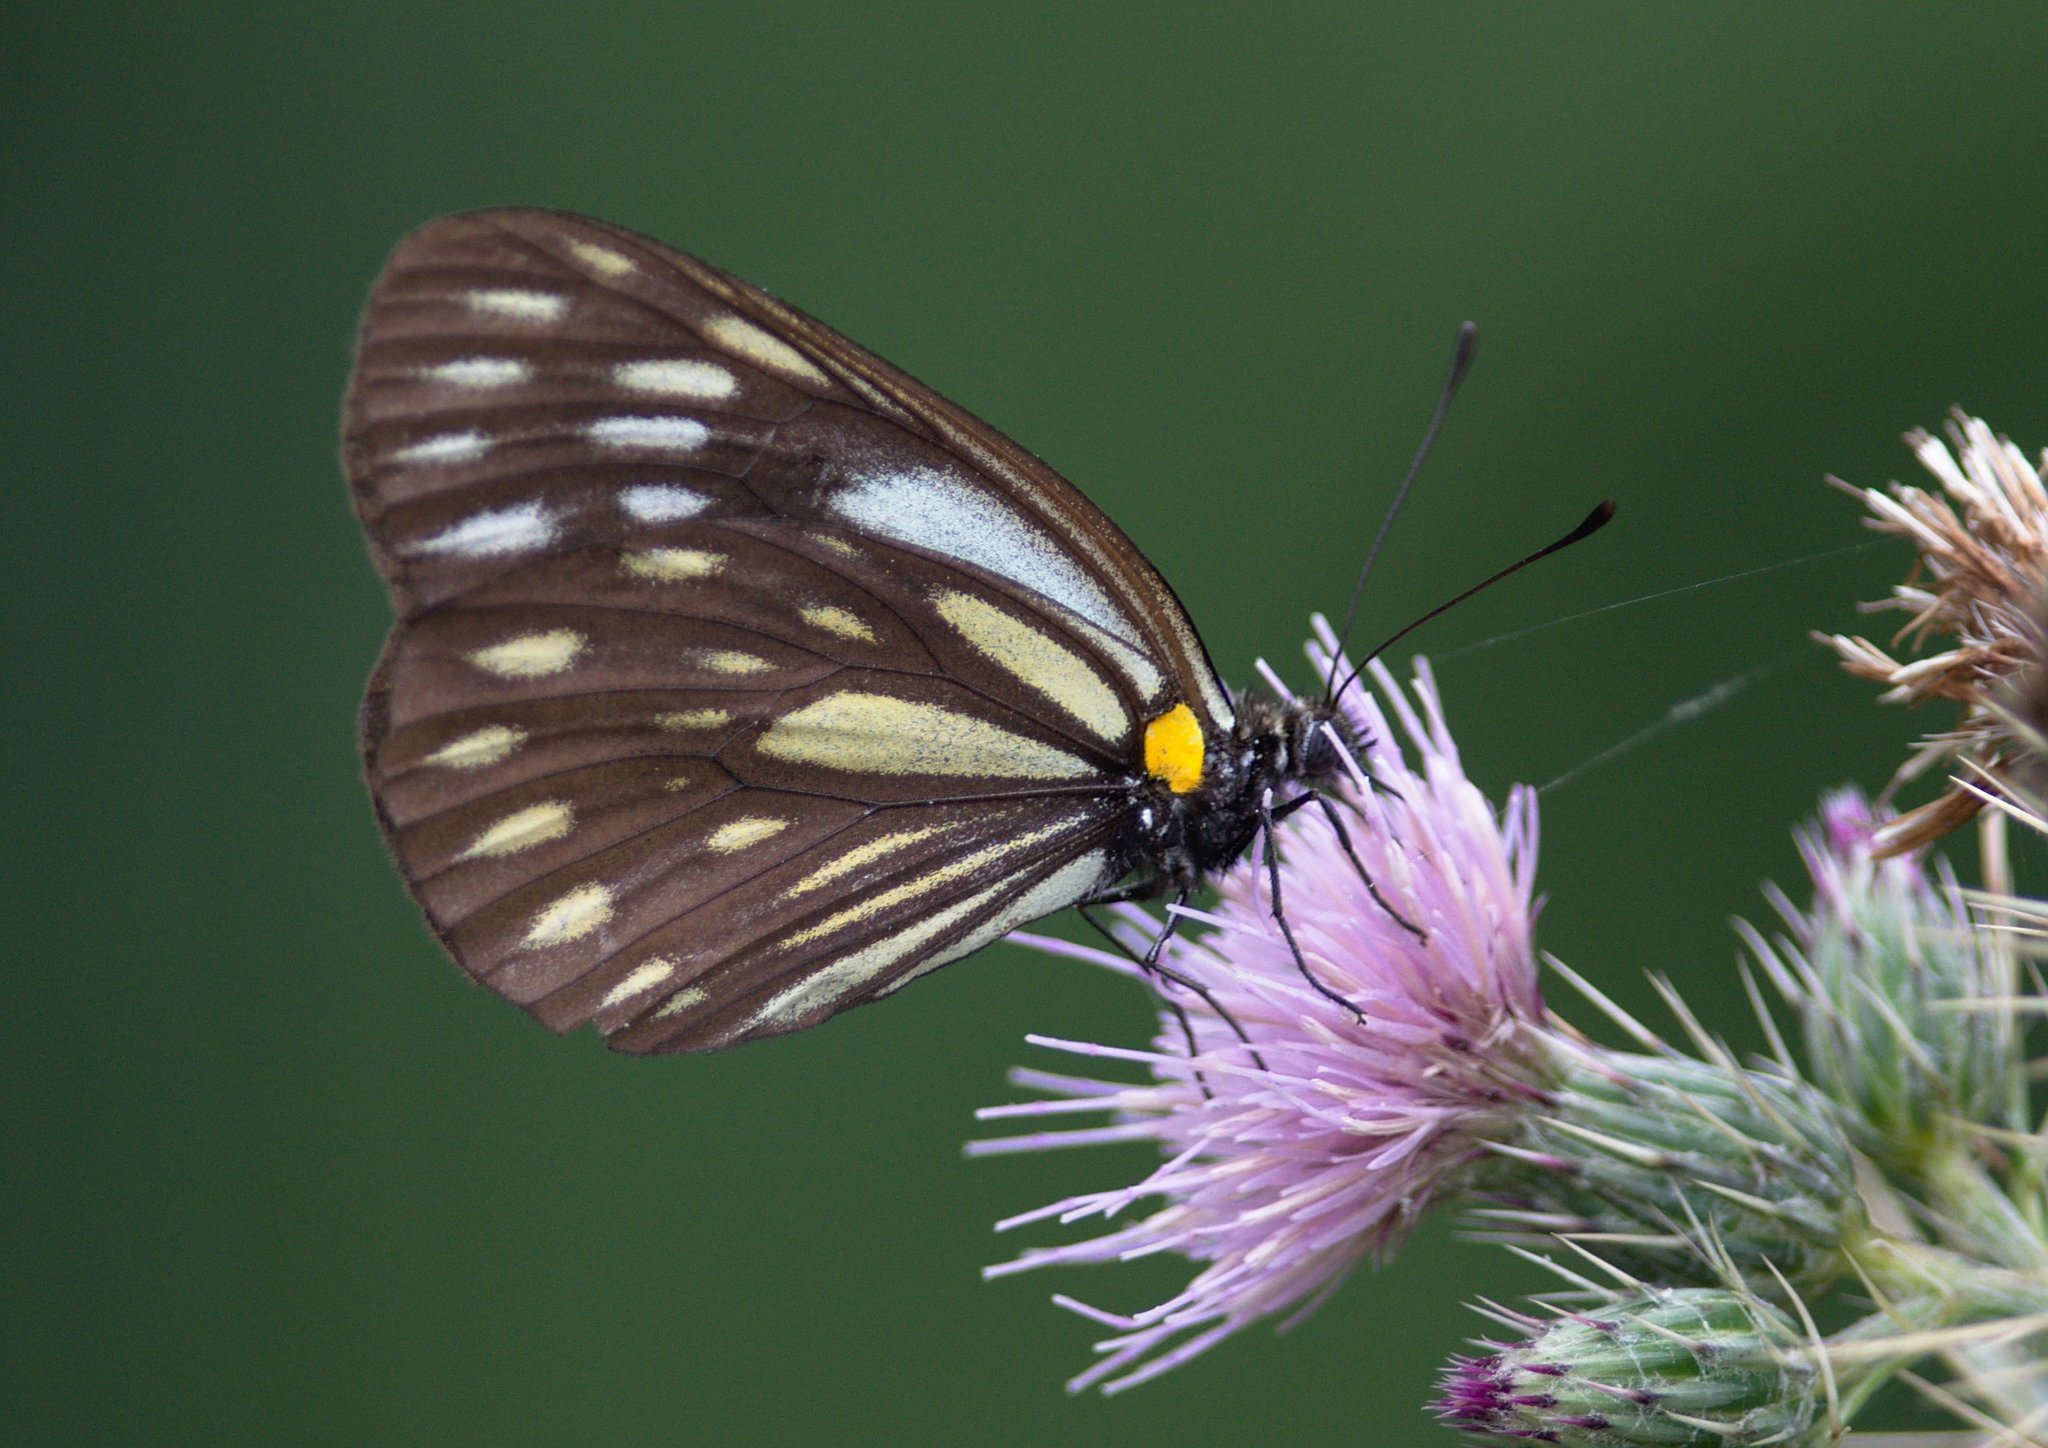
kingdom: Animalia
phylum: Arthropoda
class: Insecta
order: Lepidoptera
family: Pieridae
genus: Aporia
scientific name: Aporia agathon
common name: Great blackvein
